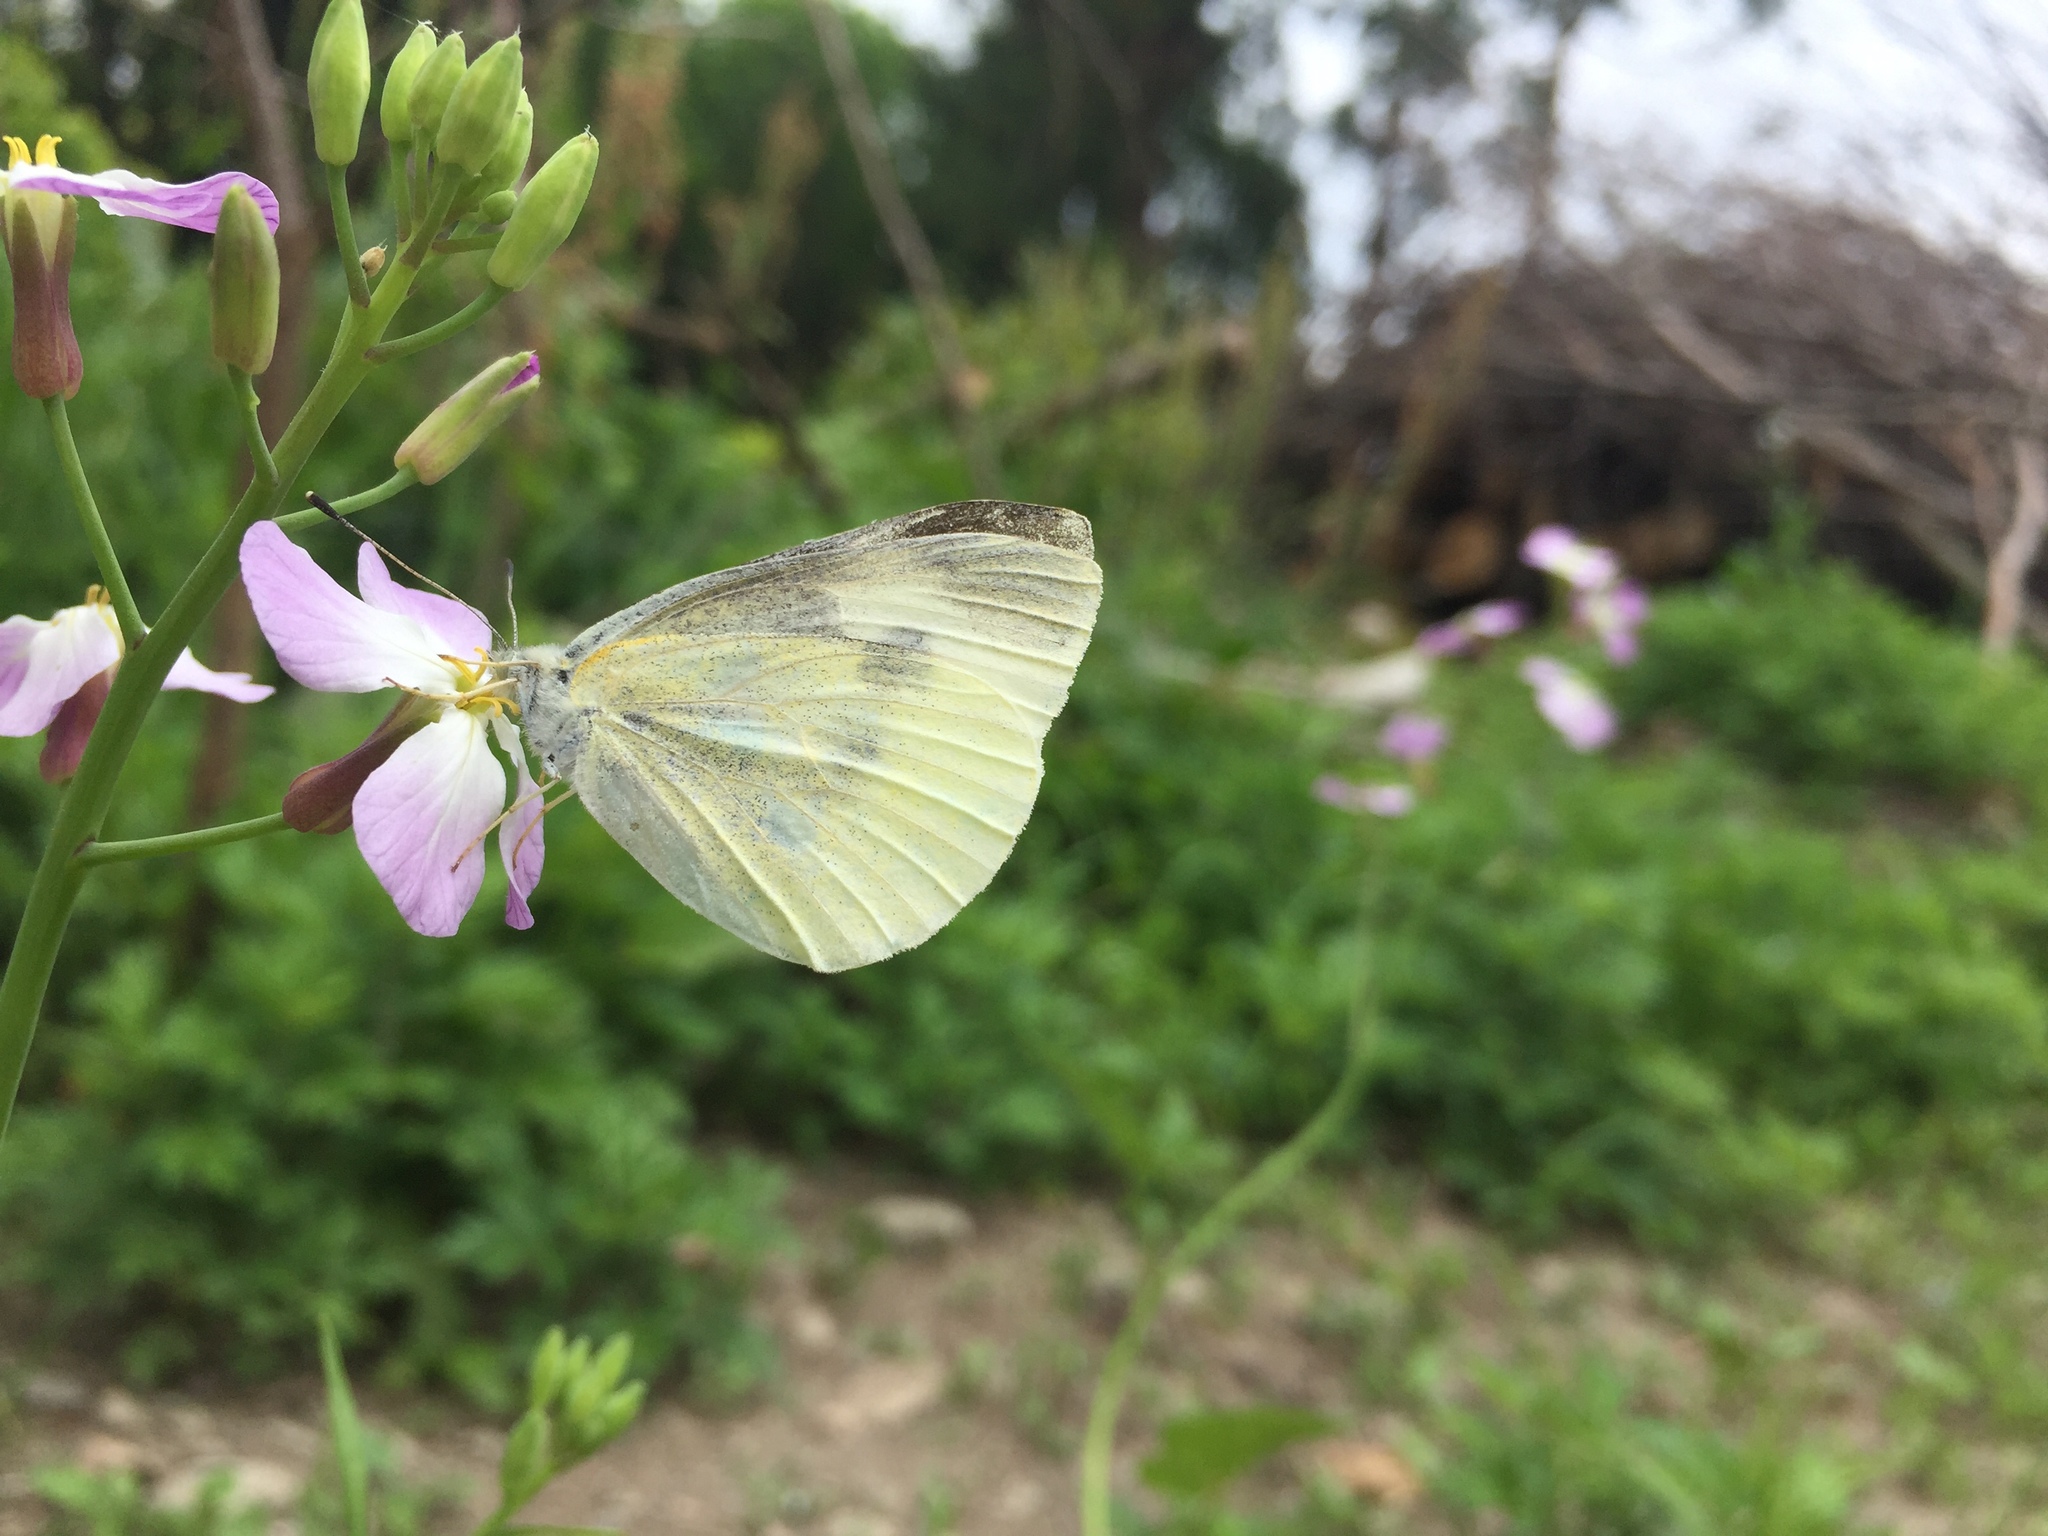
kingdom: Animalia
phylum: Arthropoda
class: Insecta
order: Lepidoptera
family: Pieridae
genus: Pieris
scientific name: Pieris rapae
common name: Small white
